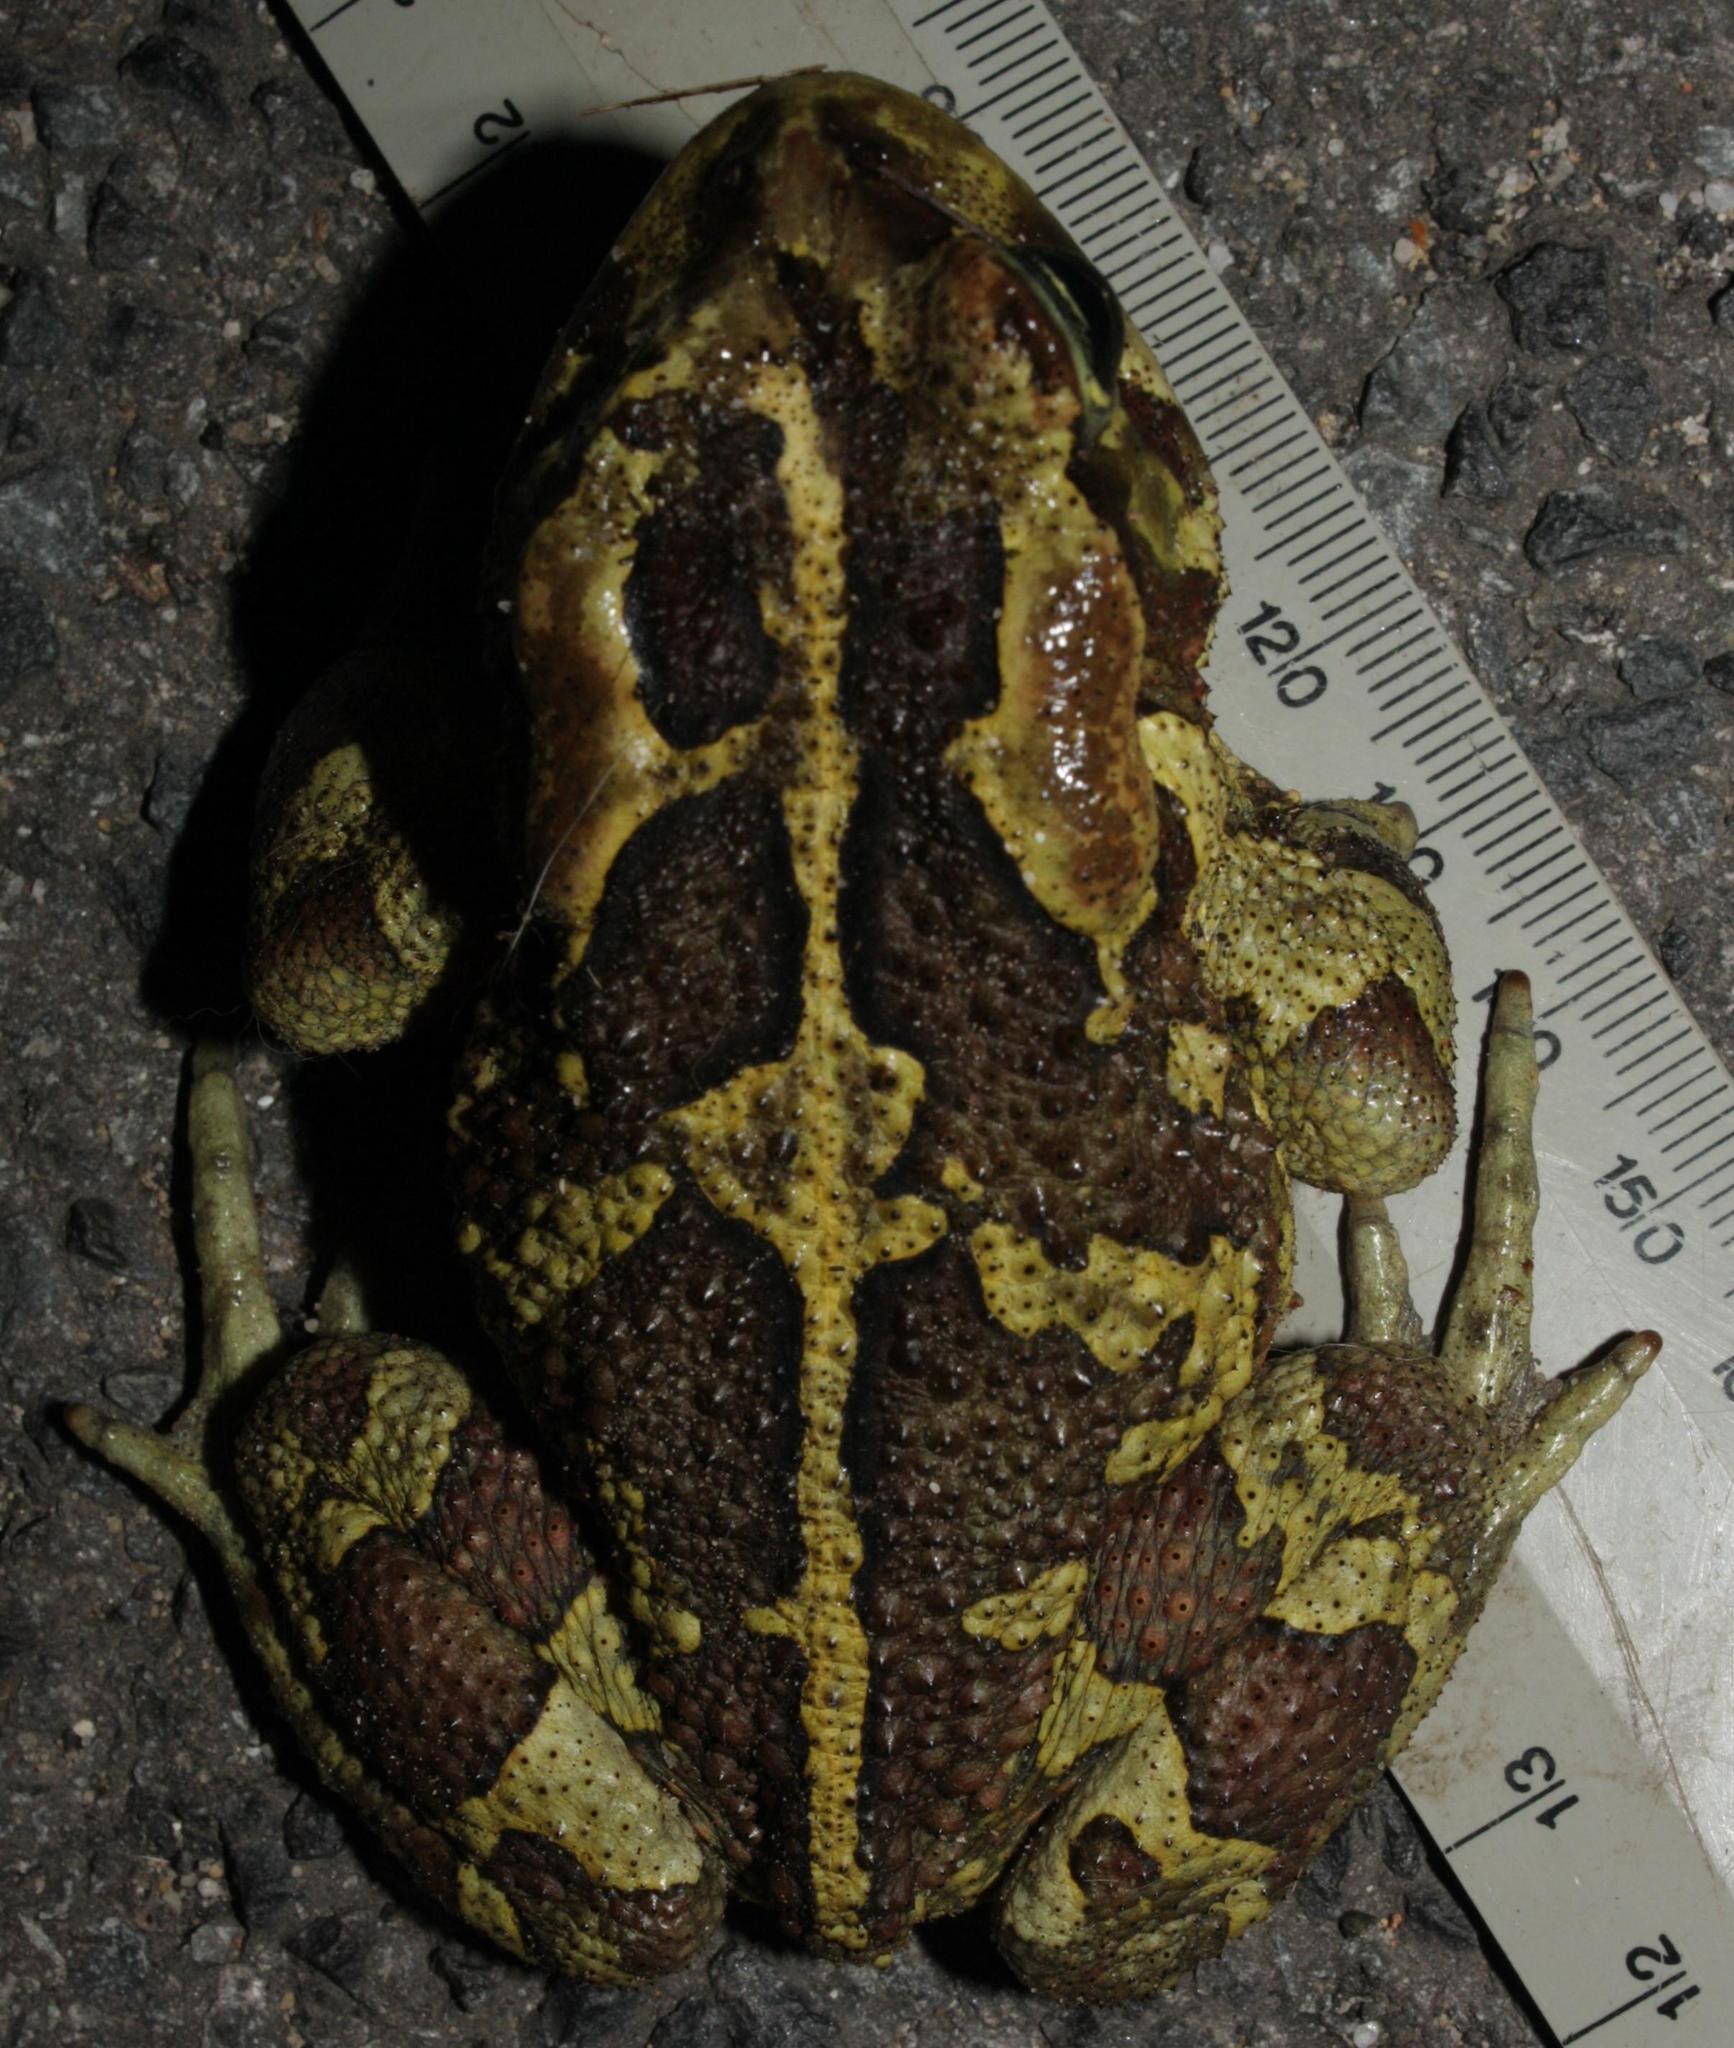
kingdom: Animalia
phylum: Chordata
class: Amphibia
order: Anura
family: Bufonidae
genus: Sclerophrys
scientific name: Sclerophrys pantherina
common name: Panther toad
